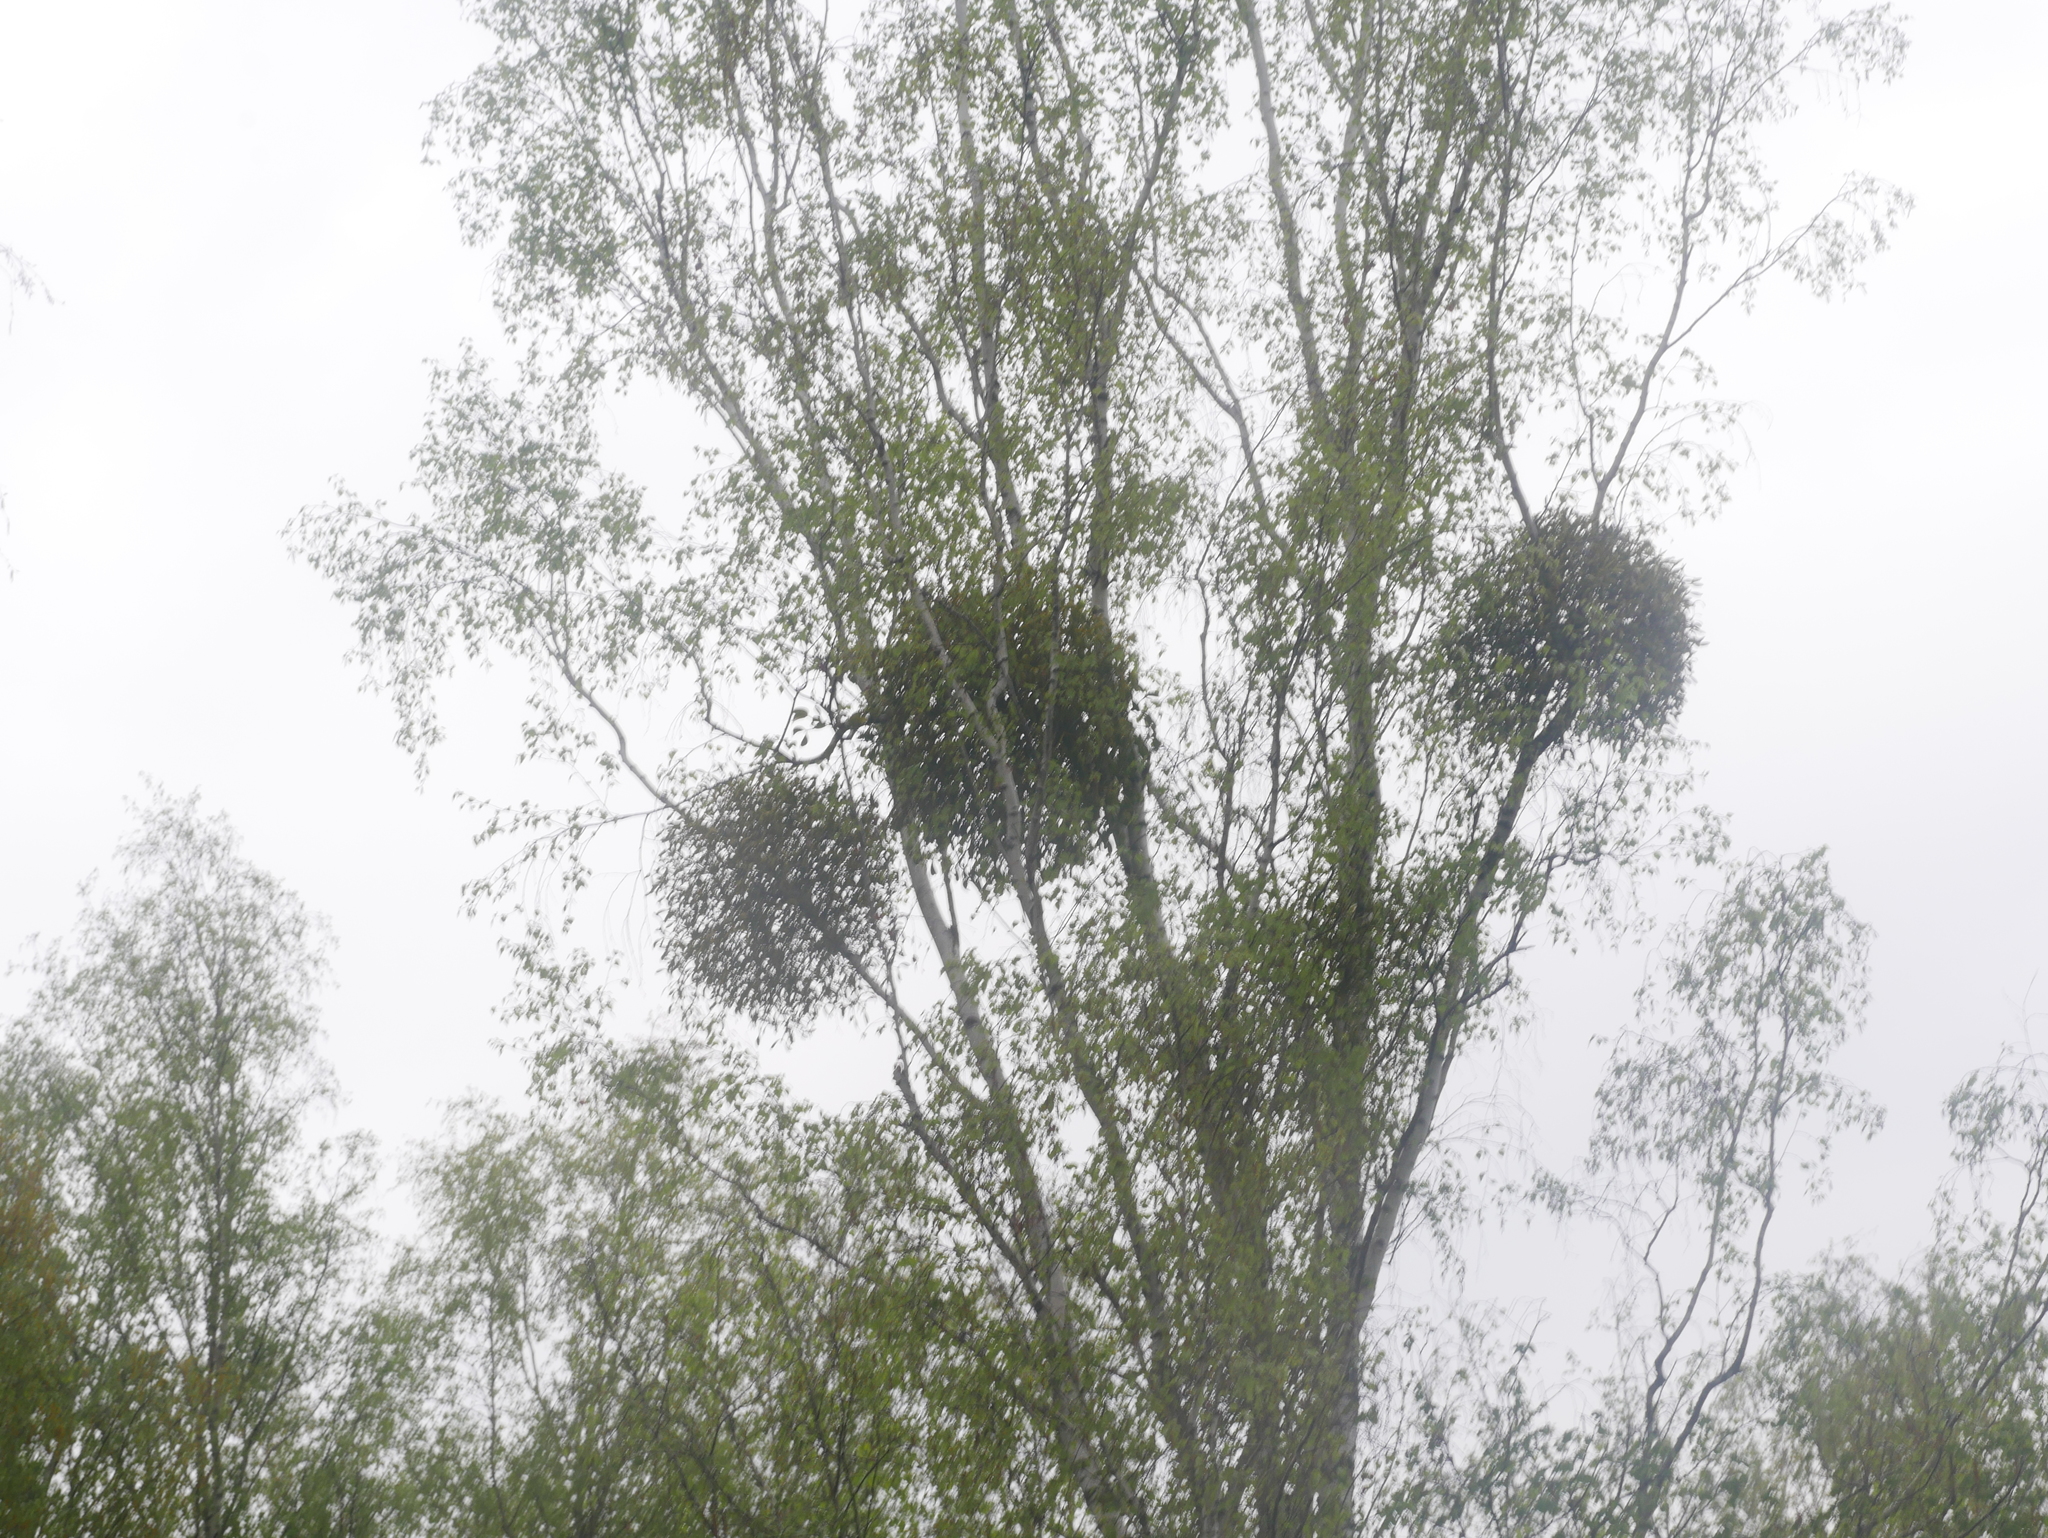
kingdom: Plantae
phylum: Tracheophyta
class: Magnoliopsida
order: Santalales
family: Viscaceae
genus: Viscum
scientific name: Viscum album
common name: Mistletoe
